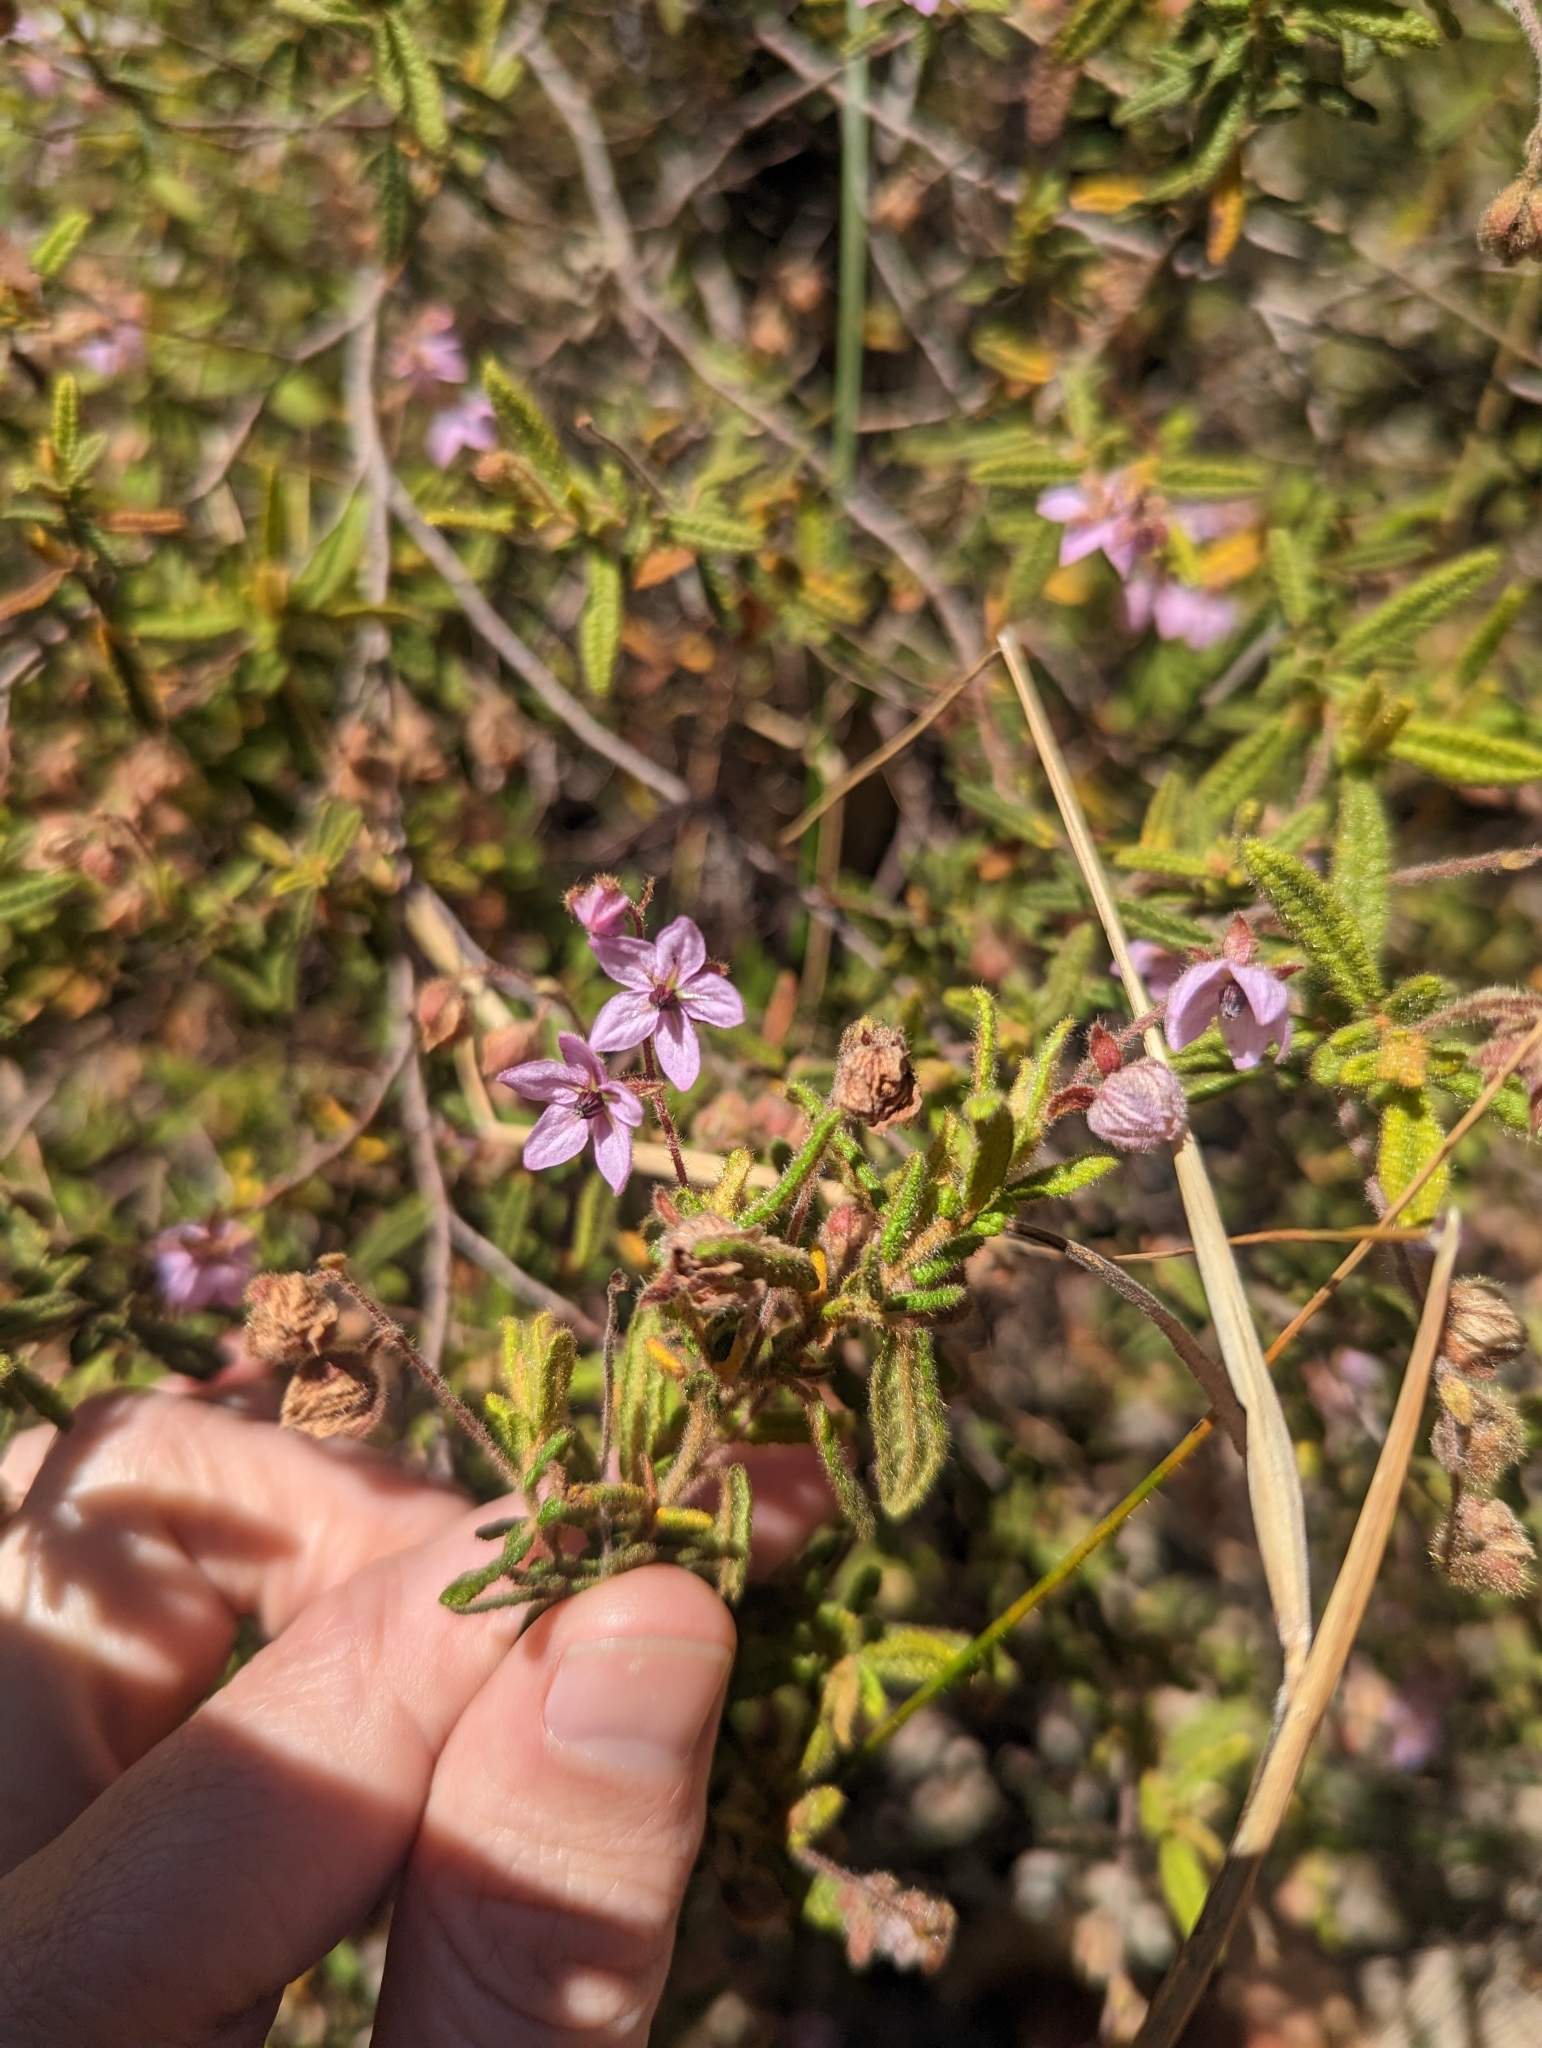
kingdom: Plantae
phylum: Tracheophyta
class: Magnoliopsida
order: Malvales
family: Malvaceae
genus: Thomasia
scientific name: Thomasia petalocalyx
